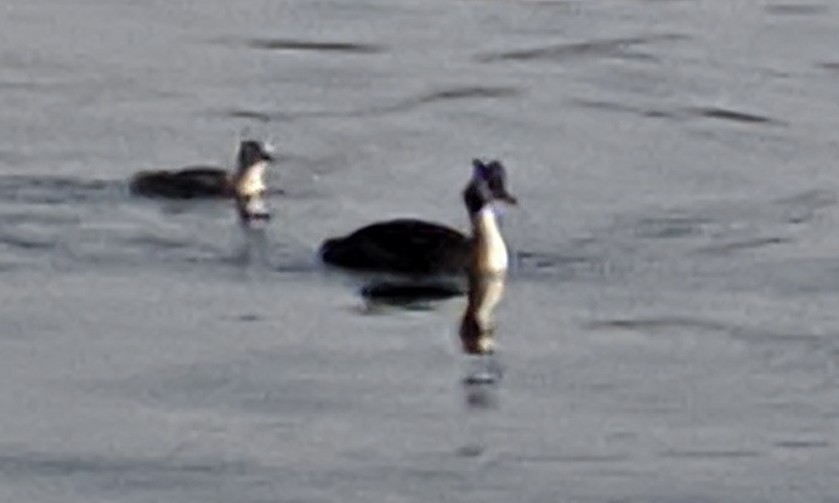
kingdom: Animalia
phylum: Chordata
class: Aves
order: Podicipediformes
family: Podicipedidae
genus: Podiceps
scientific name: Podiceps cristatus
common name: Great crested grebe
